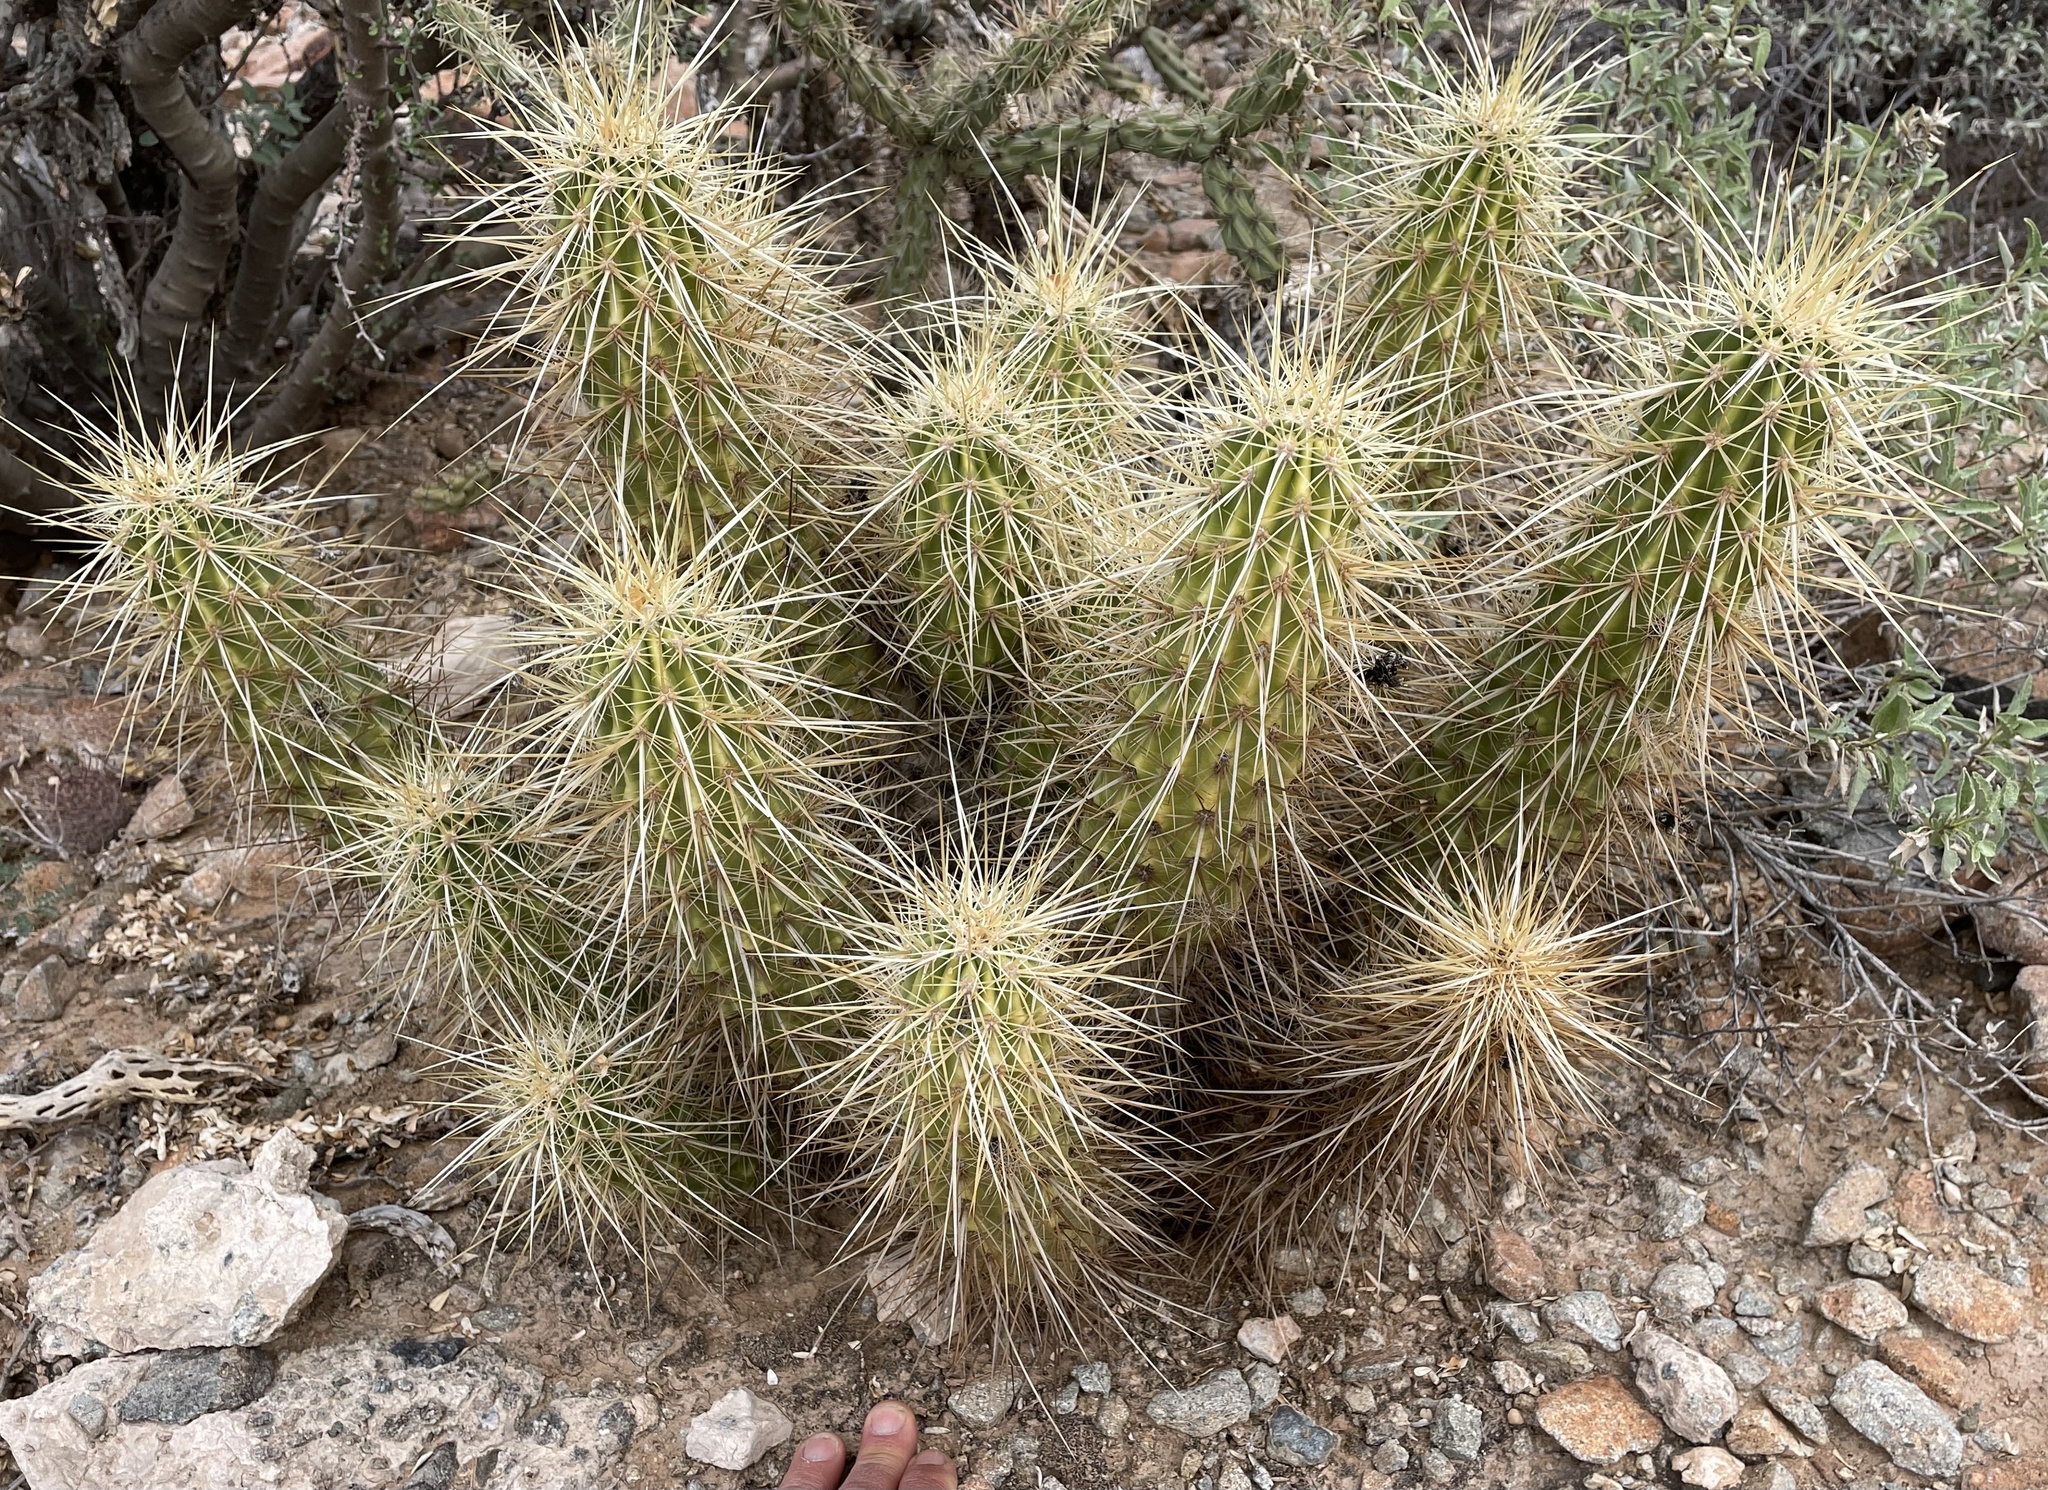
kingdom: Plantae
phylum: Tracheophyta
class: Magnoliopsida
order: Caryophyllales
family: Cactaceae
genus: Echinocereus
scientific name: Echinocereus nicholii
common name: Nichol's hedgehog cactus
